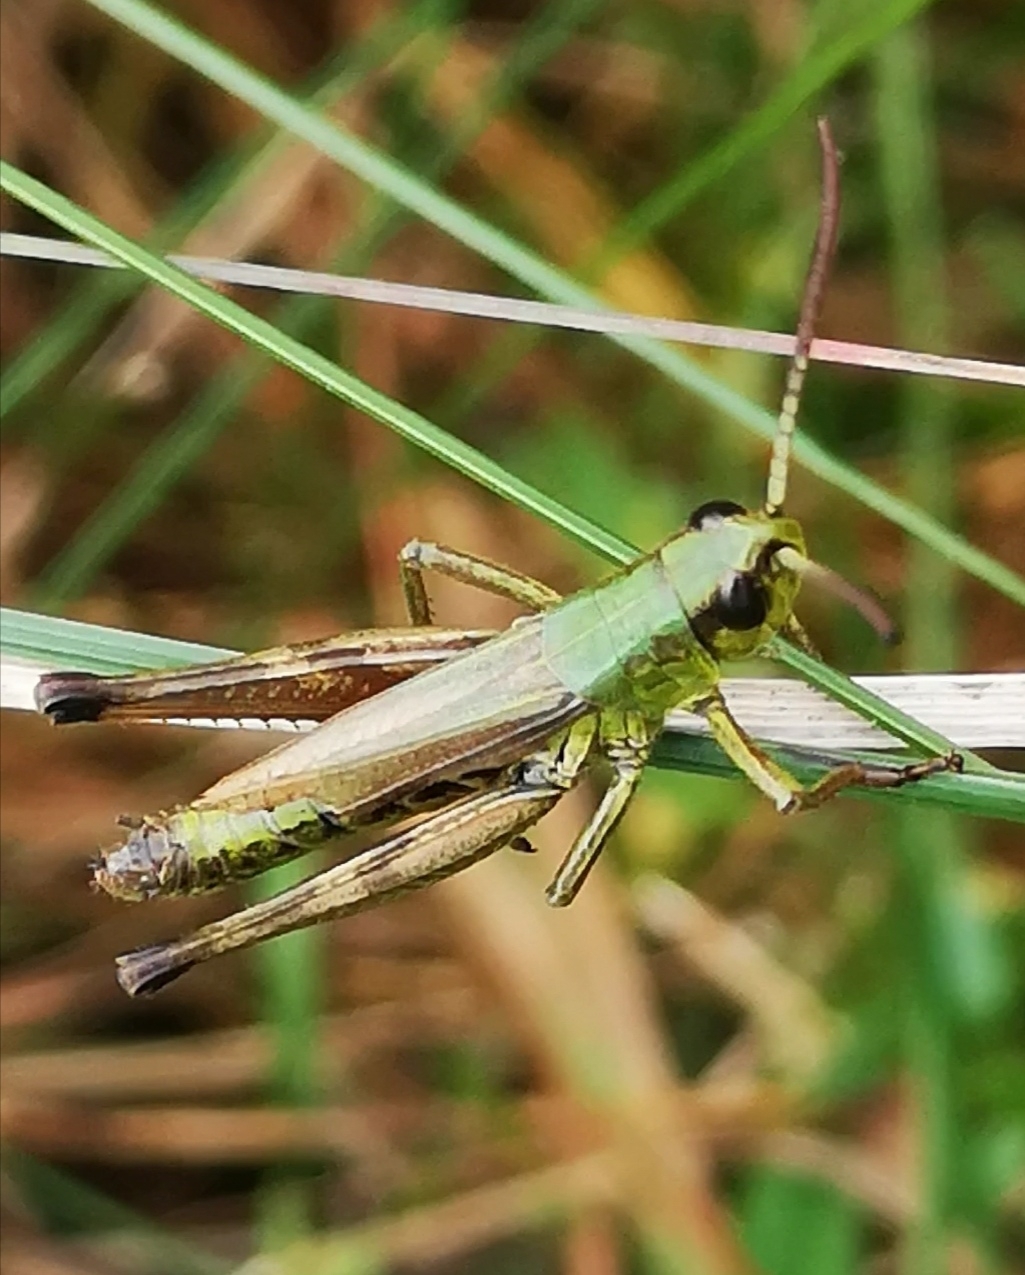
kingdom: Animalia
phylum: Arthropoda
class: Insecta
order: Orthoptera
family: Acrididae
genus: Pseudochorthippus
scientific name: Pseudochorthippus parallelus
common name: Meadow grasshopper
